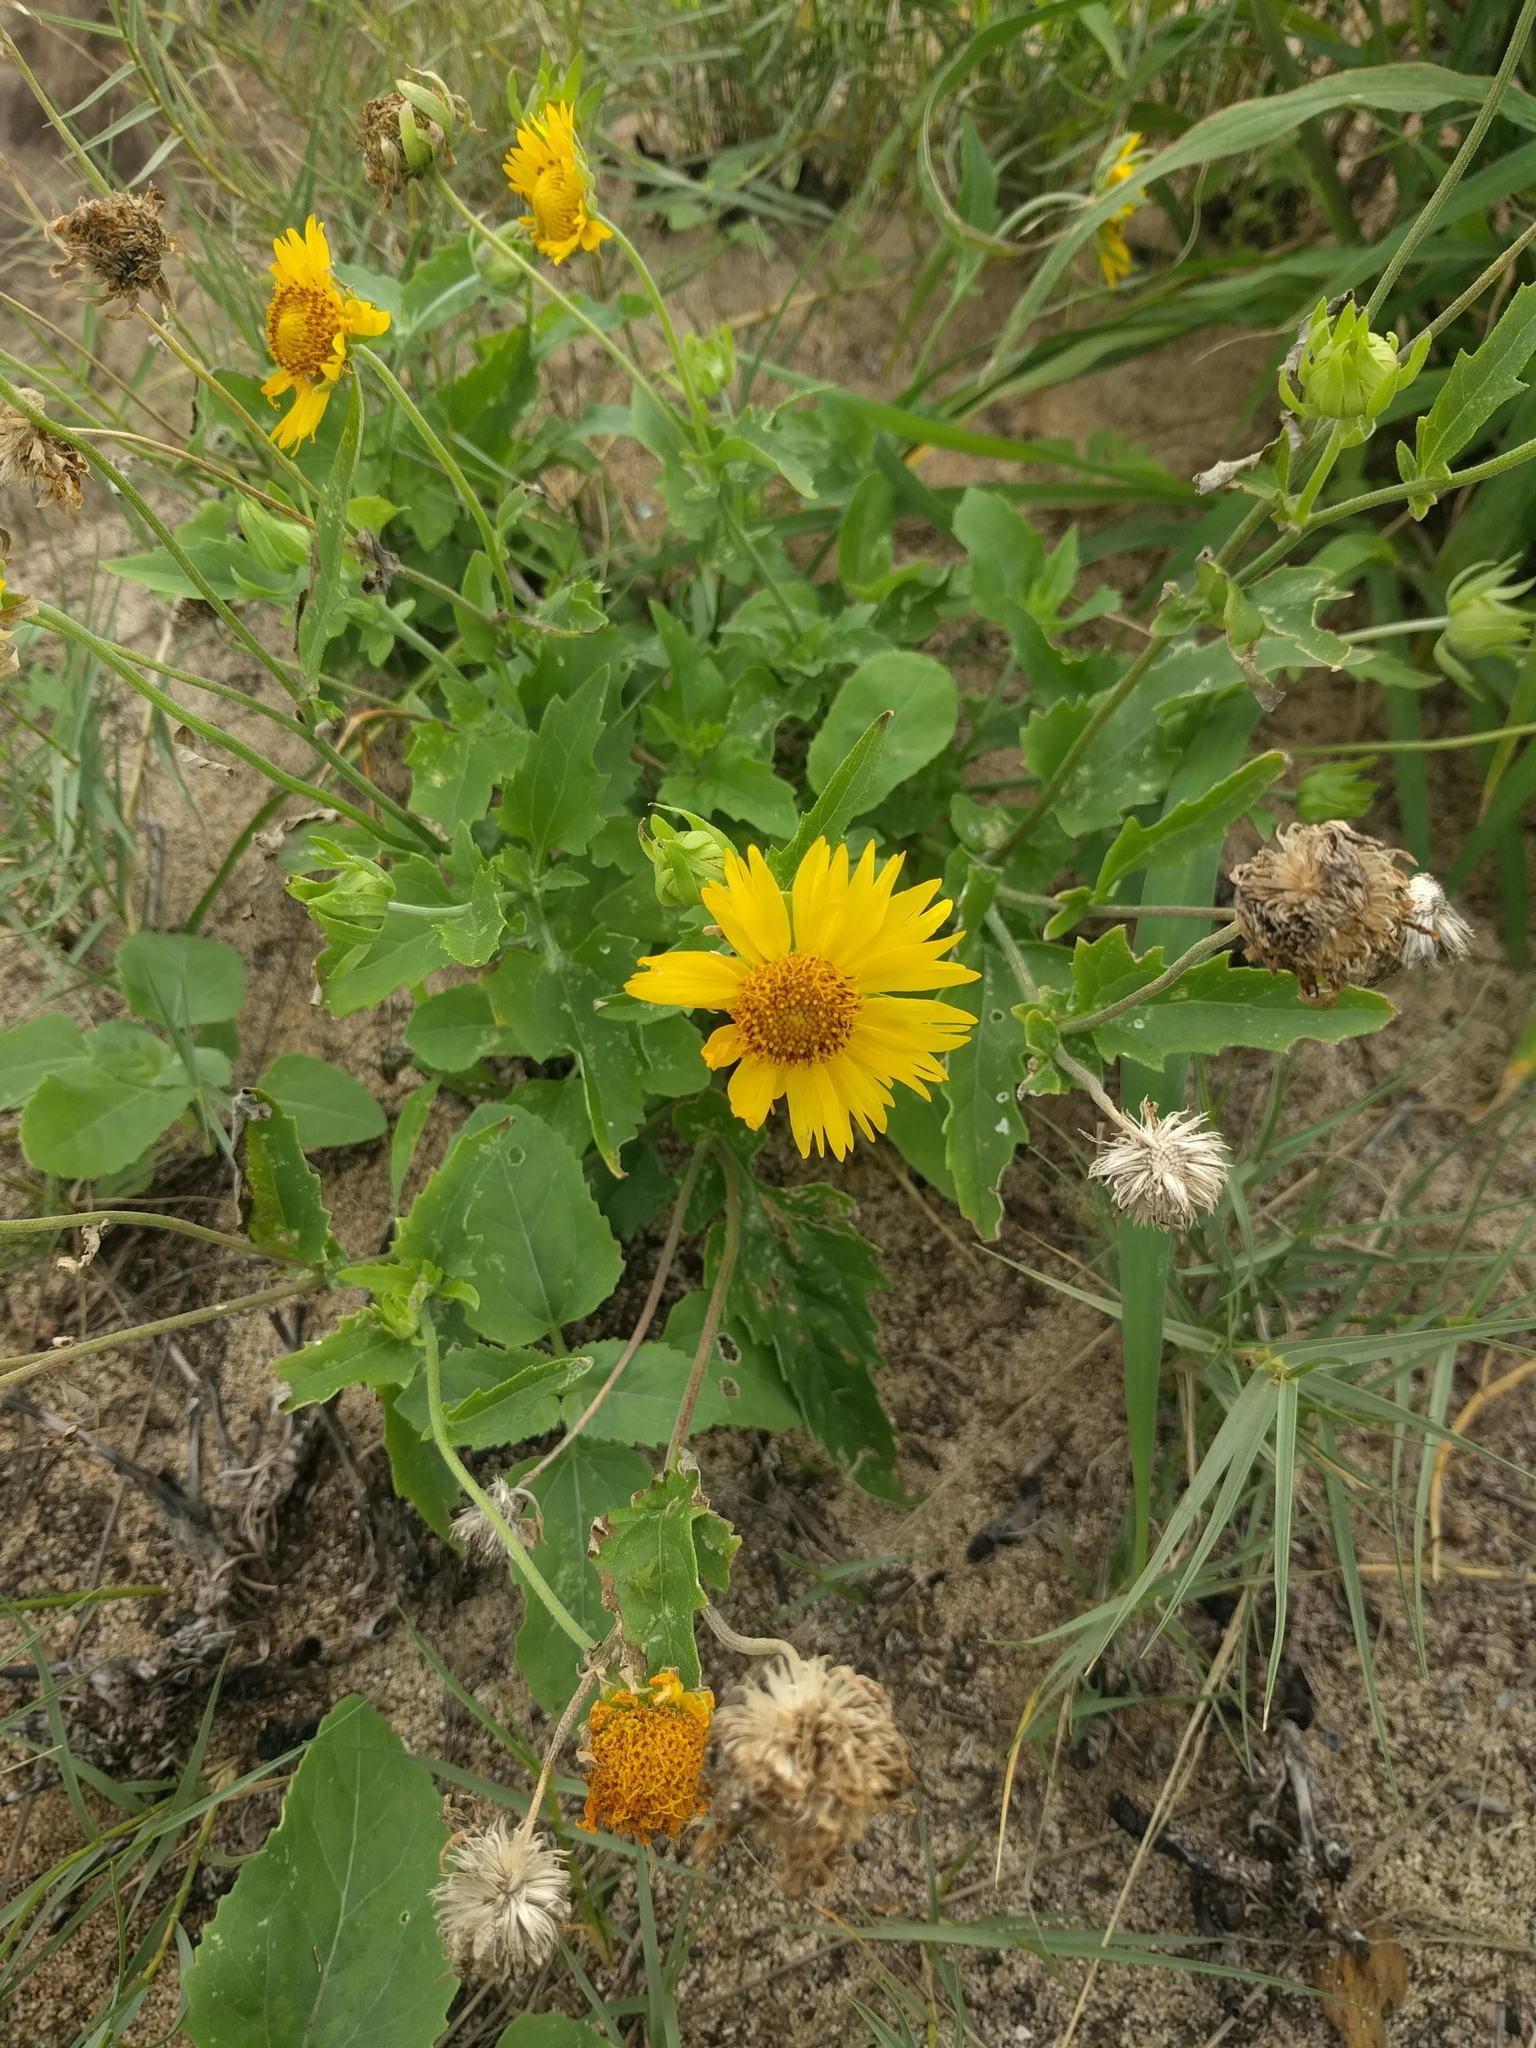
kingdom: Plantae
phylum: Tracheophyta
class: Magnoliopsida
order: Asterales
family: Asteraceae
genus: Verbesina
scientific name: Verbesina encelioides
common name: Golden crownbeard
